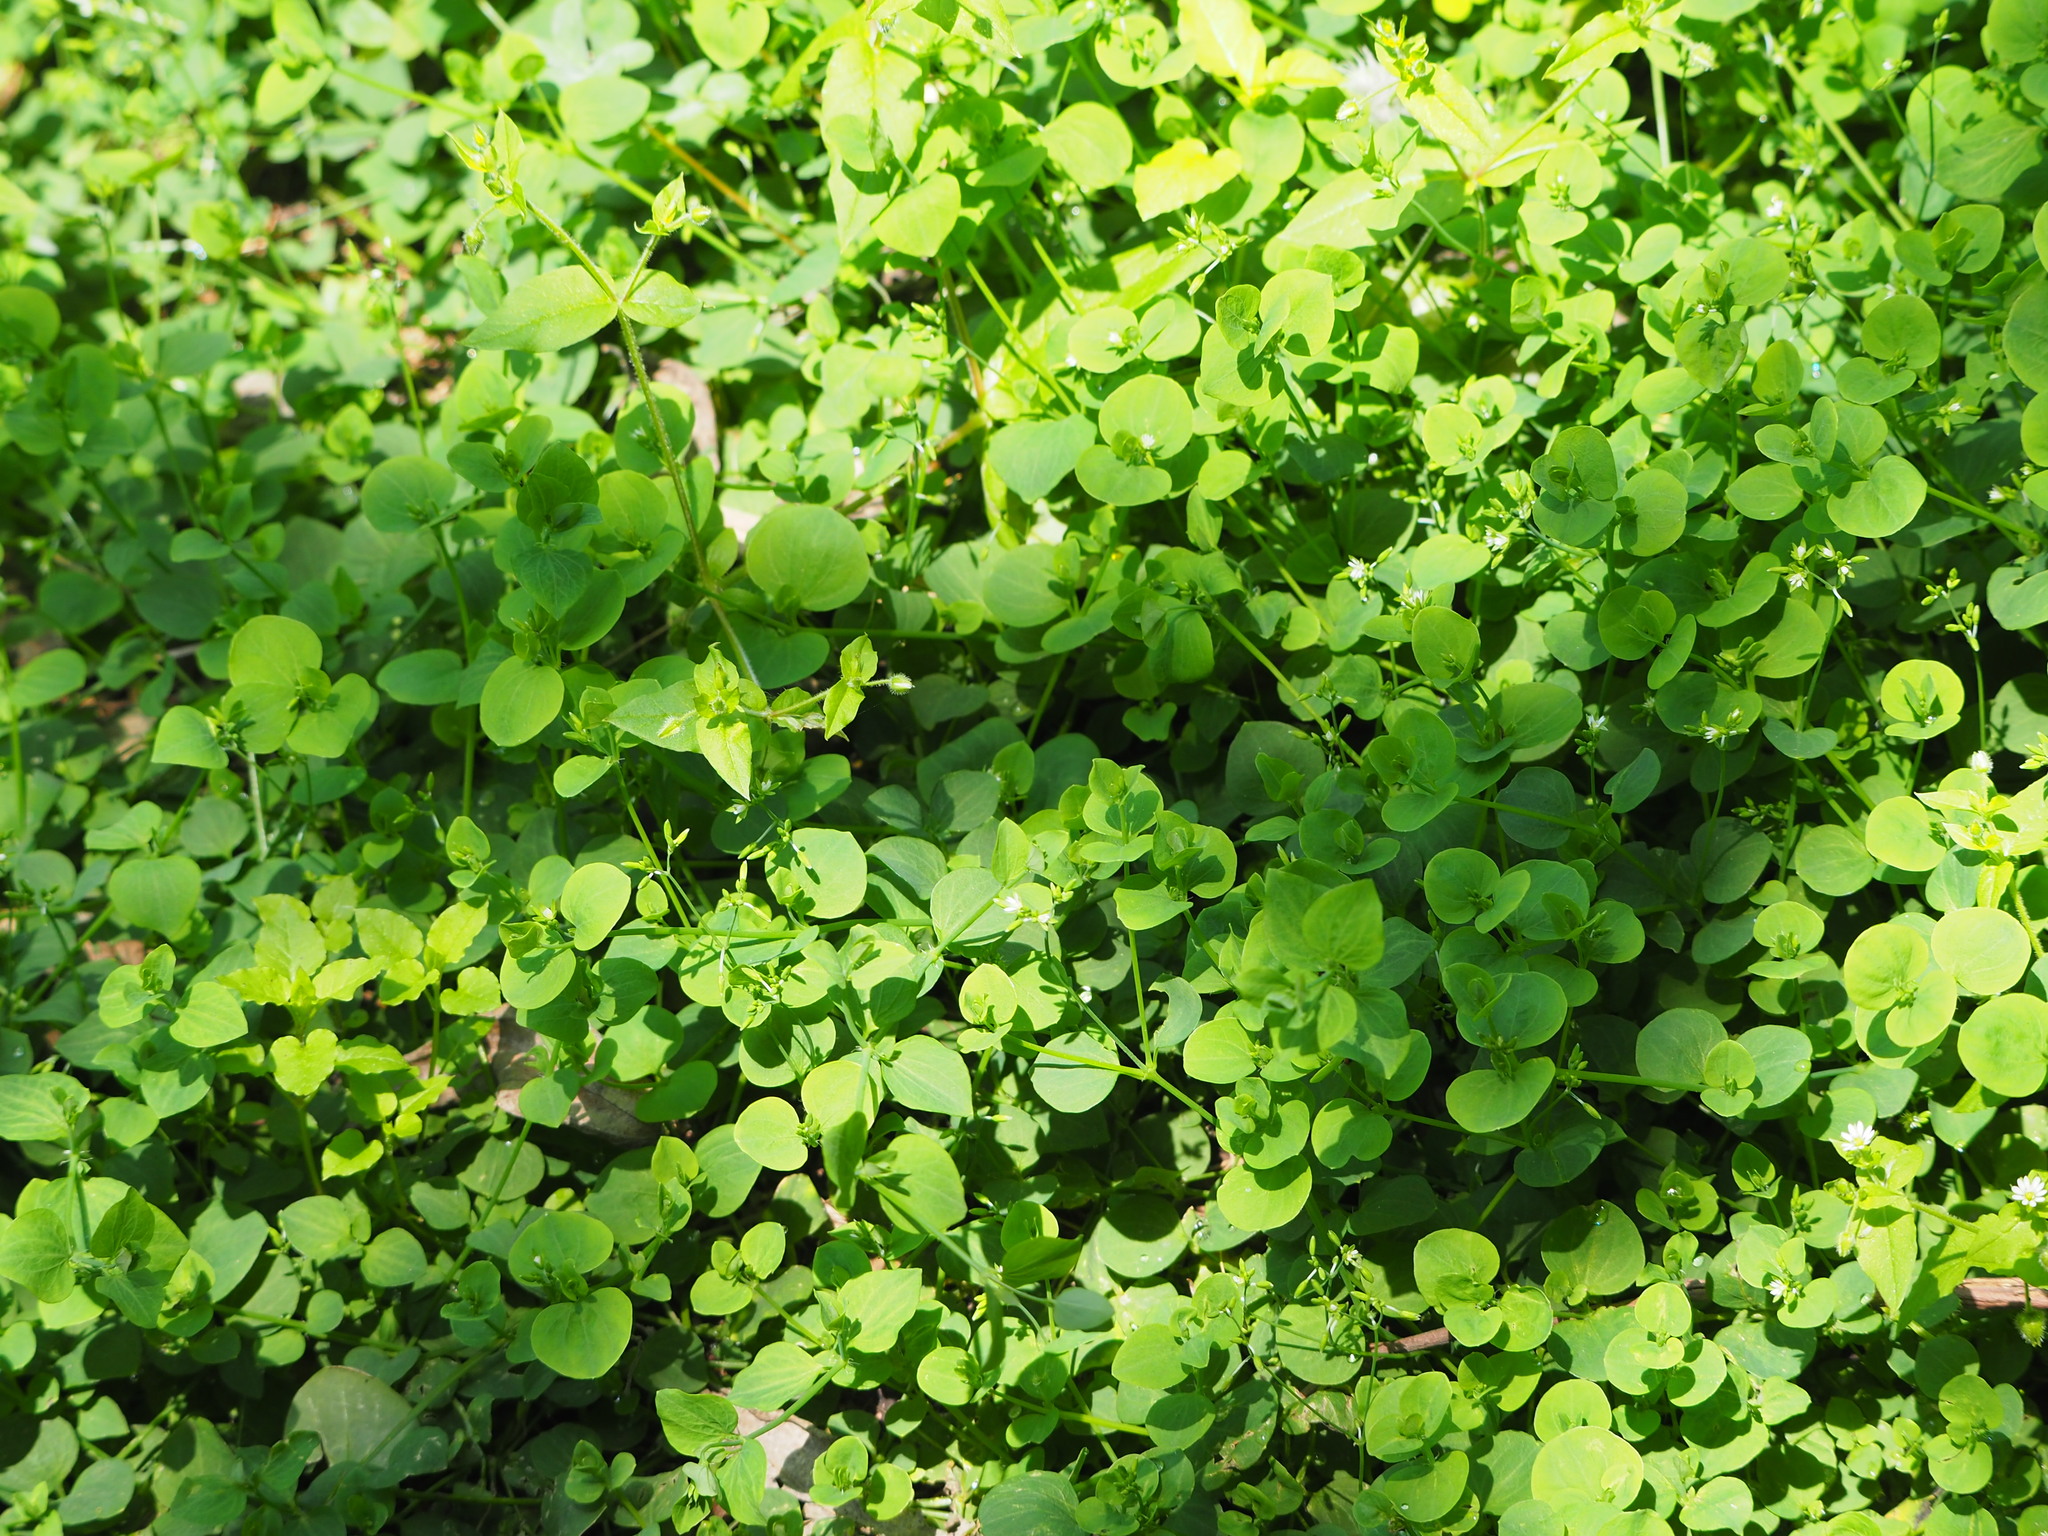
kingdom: Plantae
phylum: Tracheophyta
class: Magnoliopsida
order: Caryophyllales
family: Caryophyllaceae
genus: Drymaria
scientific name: Drymaria cordata
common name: Whitesnow
